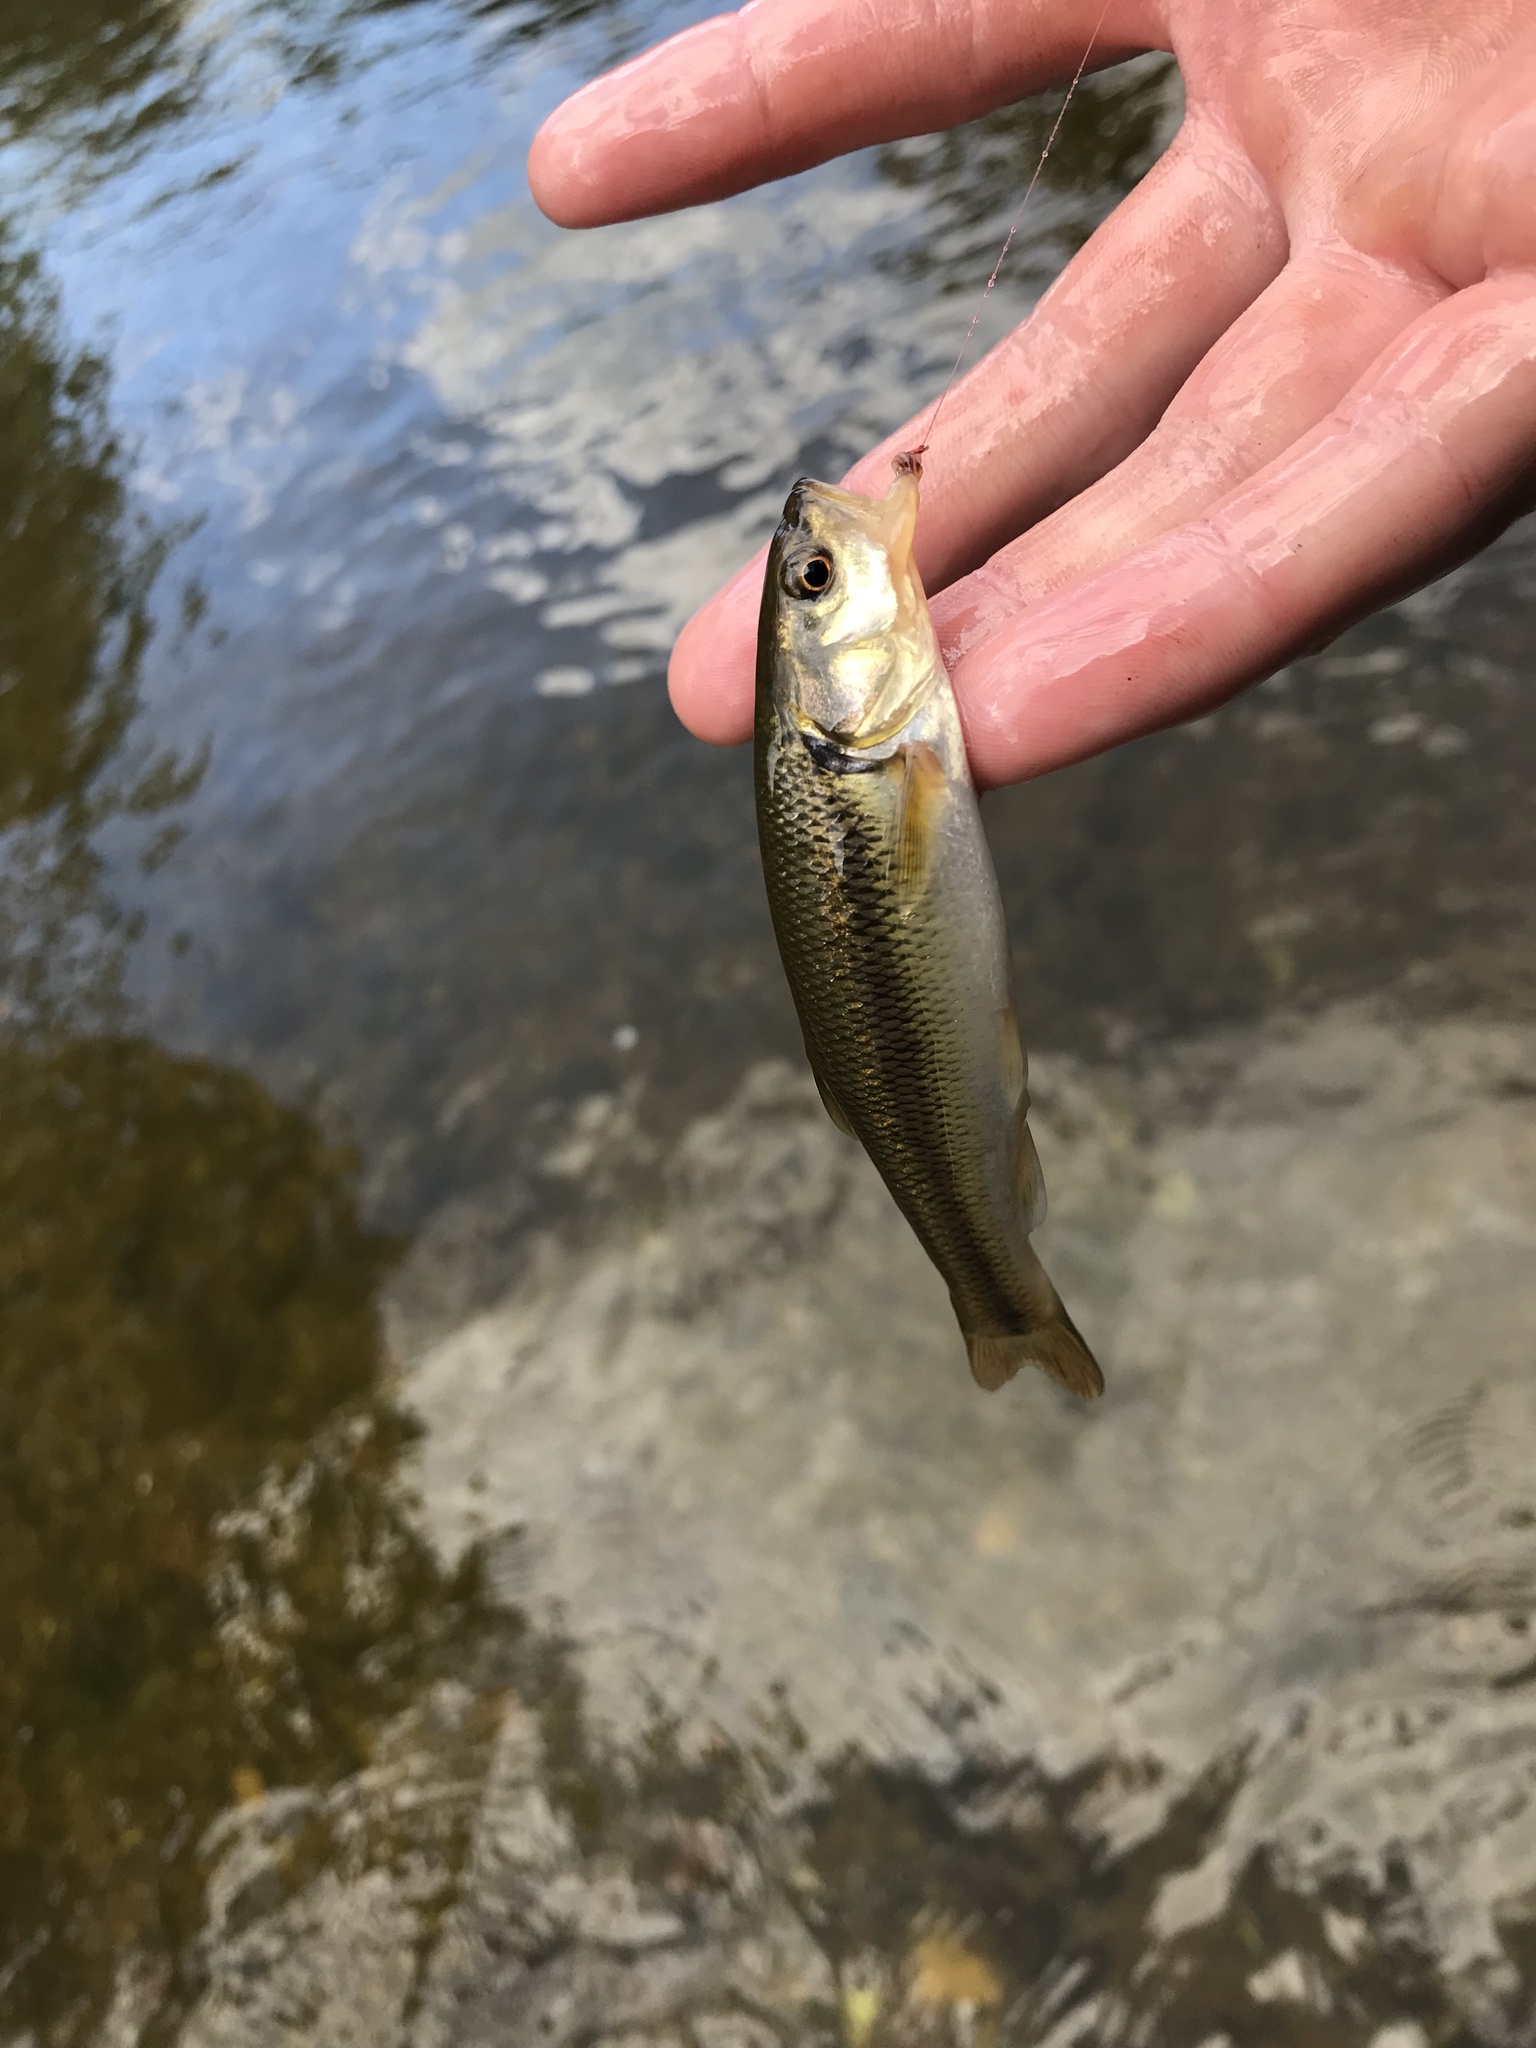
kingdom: Animalia
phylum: Chordata
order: Cypriniformes
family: Cyprinidae
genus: Semotilus
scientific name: Semotilus atromaculatus
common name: Creek chub
